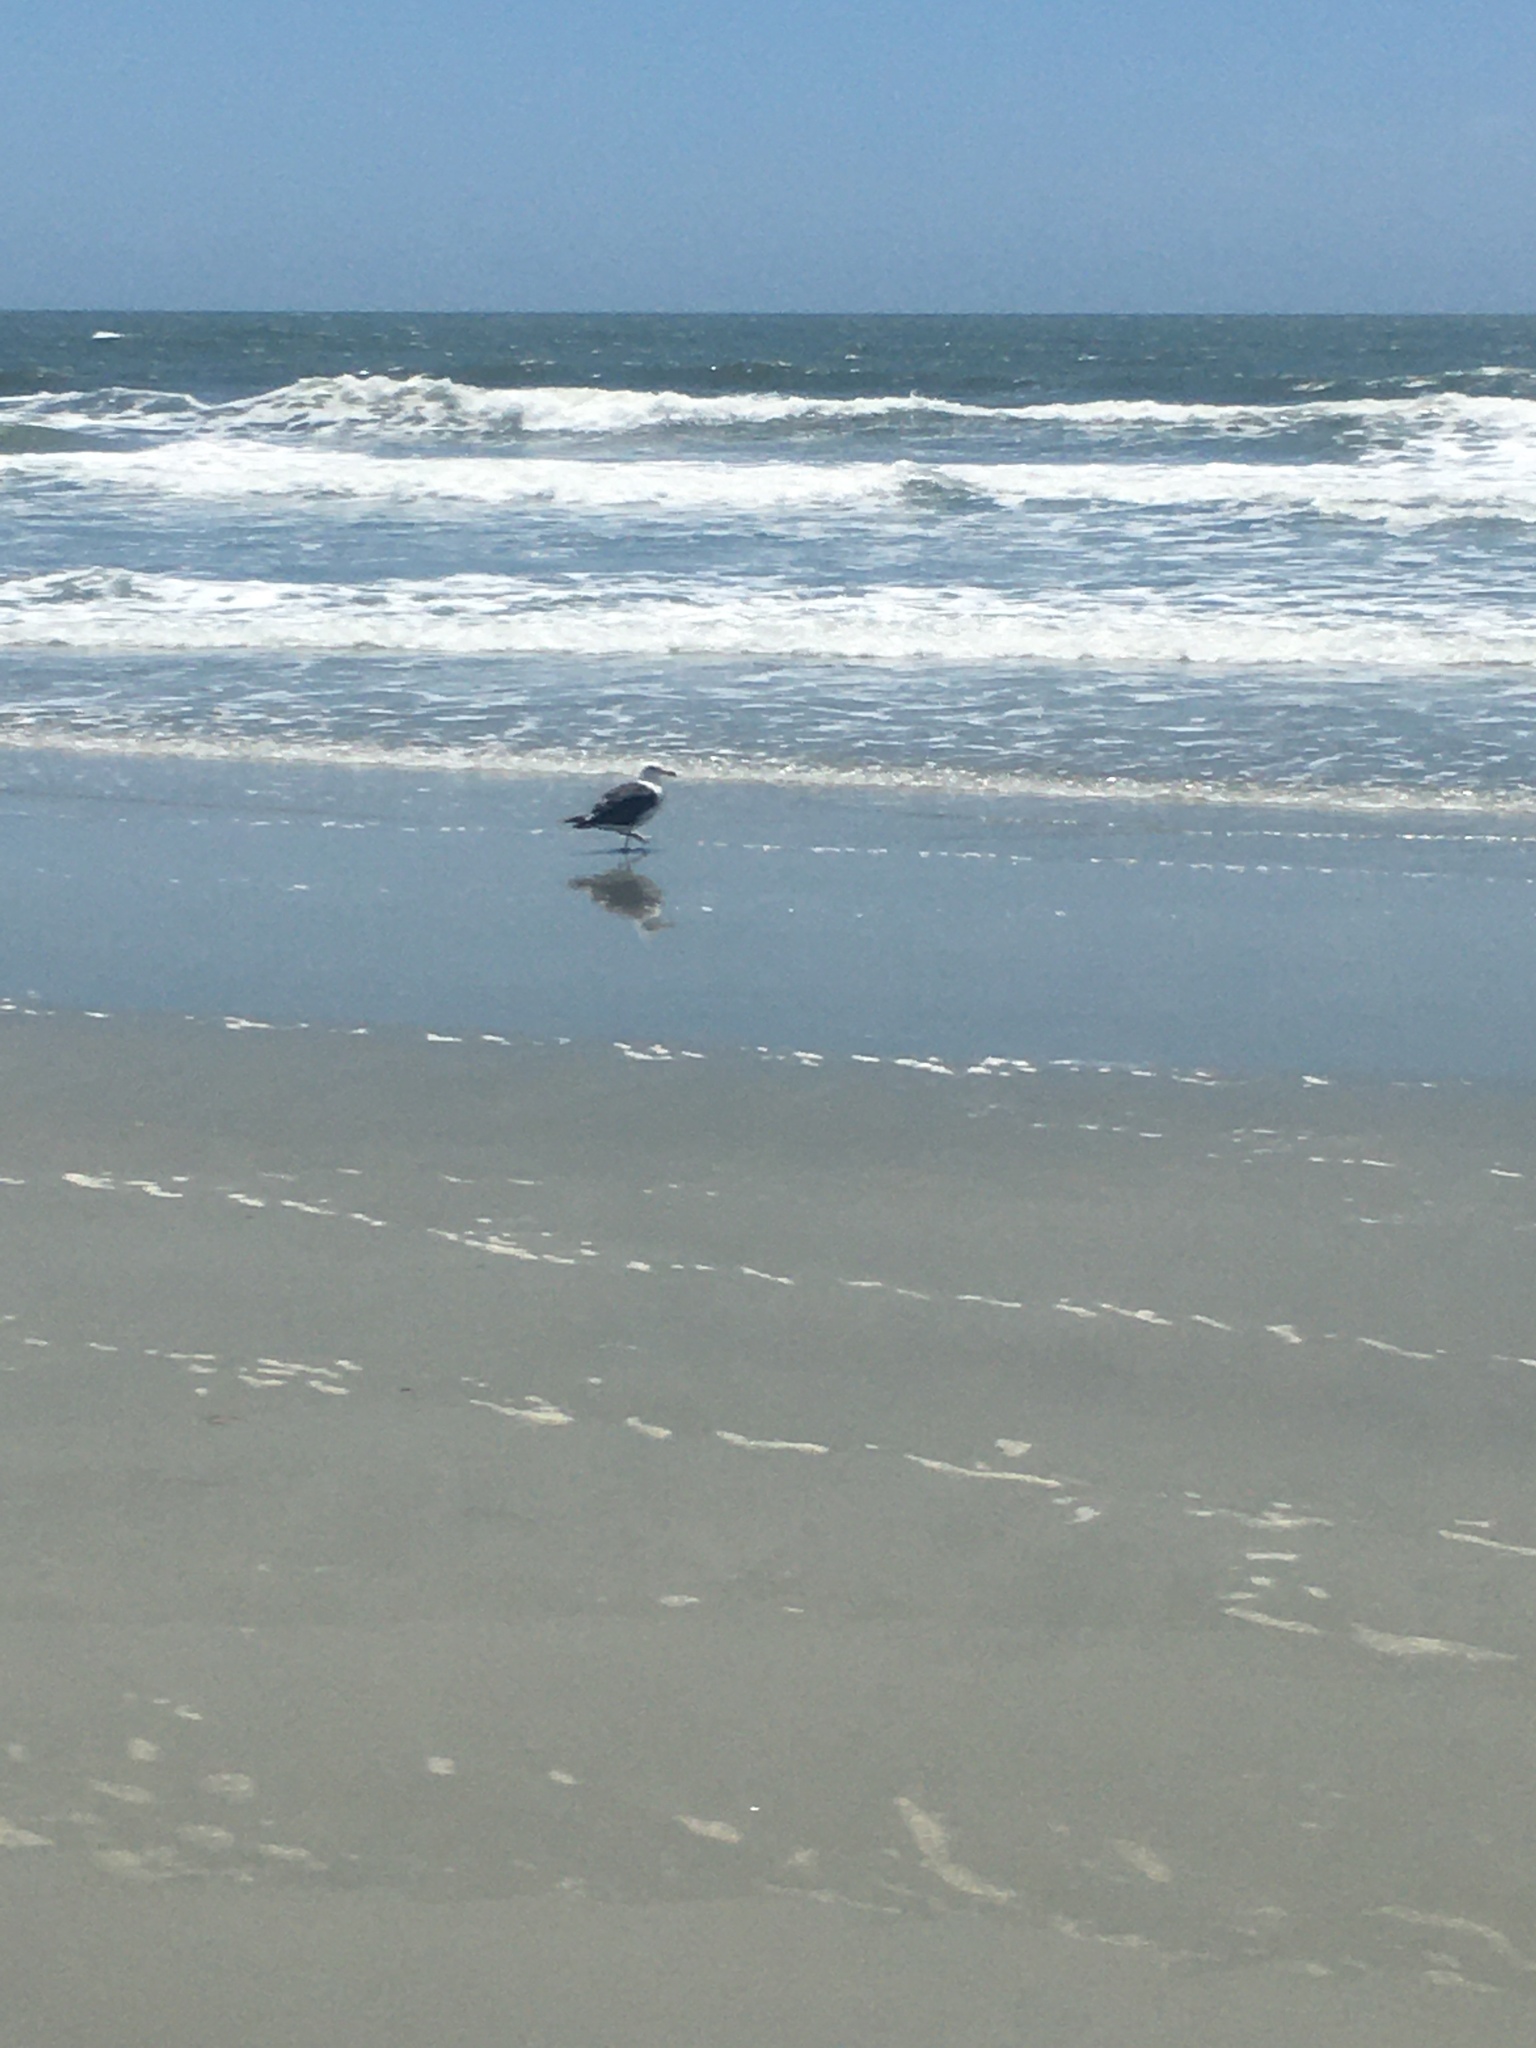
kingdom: Animalia
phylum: Chordata
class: Aves
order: Charadriiformes
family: Laridae
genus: Larus
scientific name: Larus marinus
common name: Great black-backed gull
